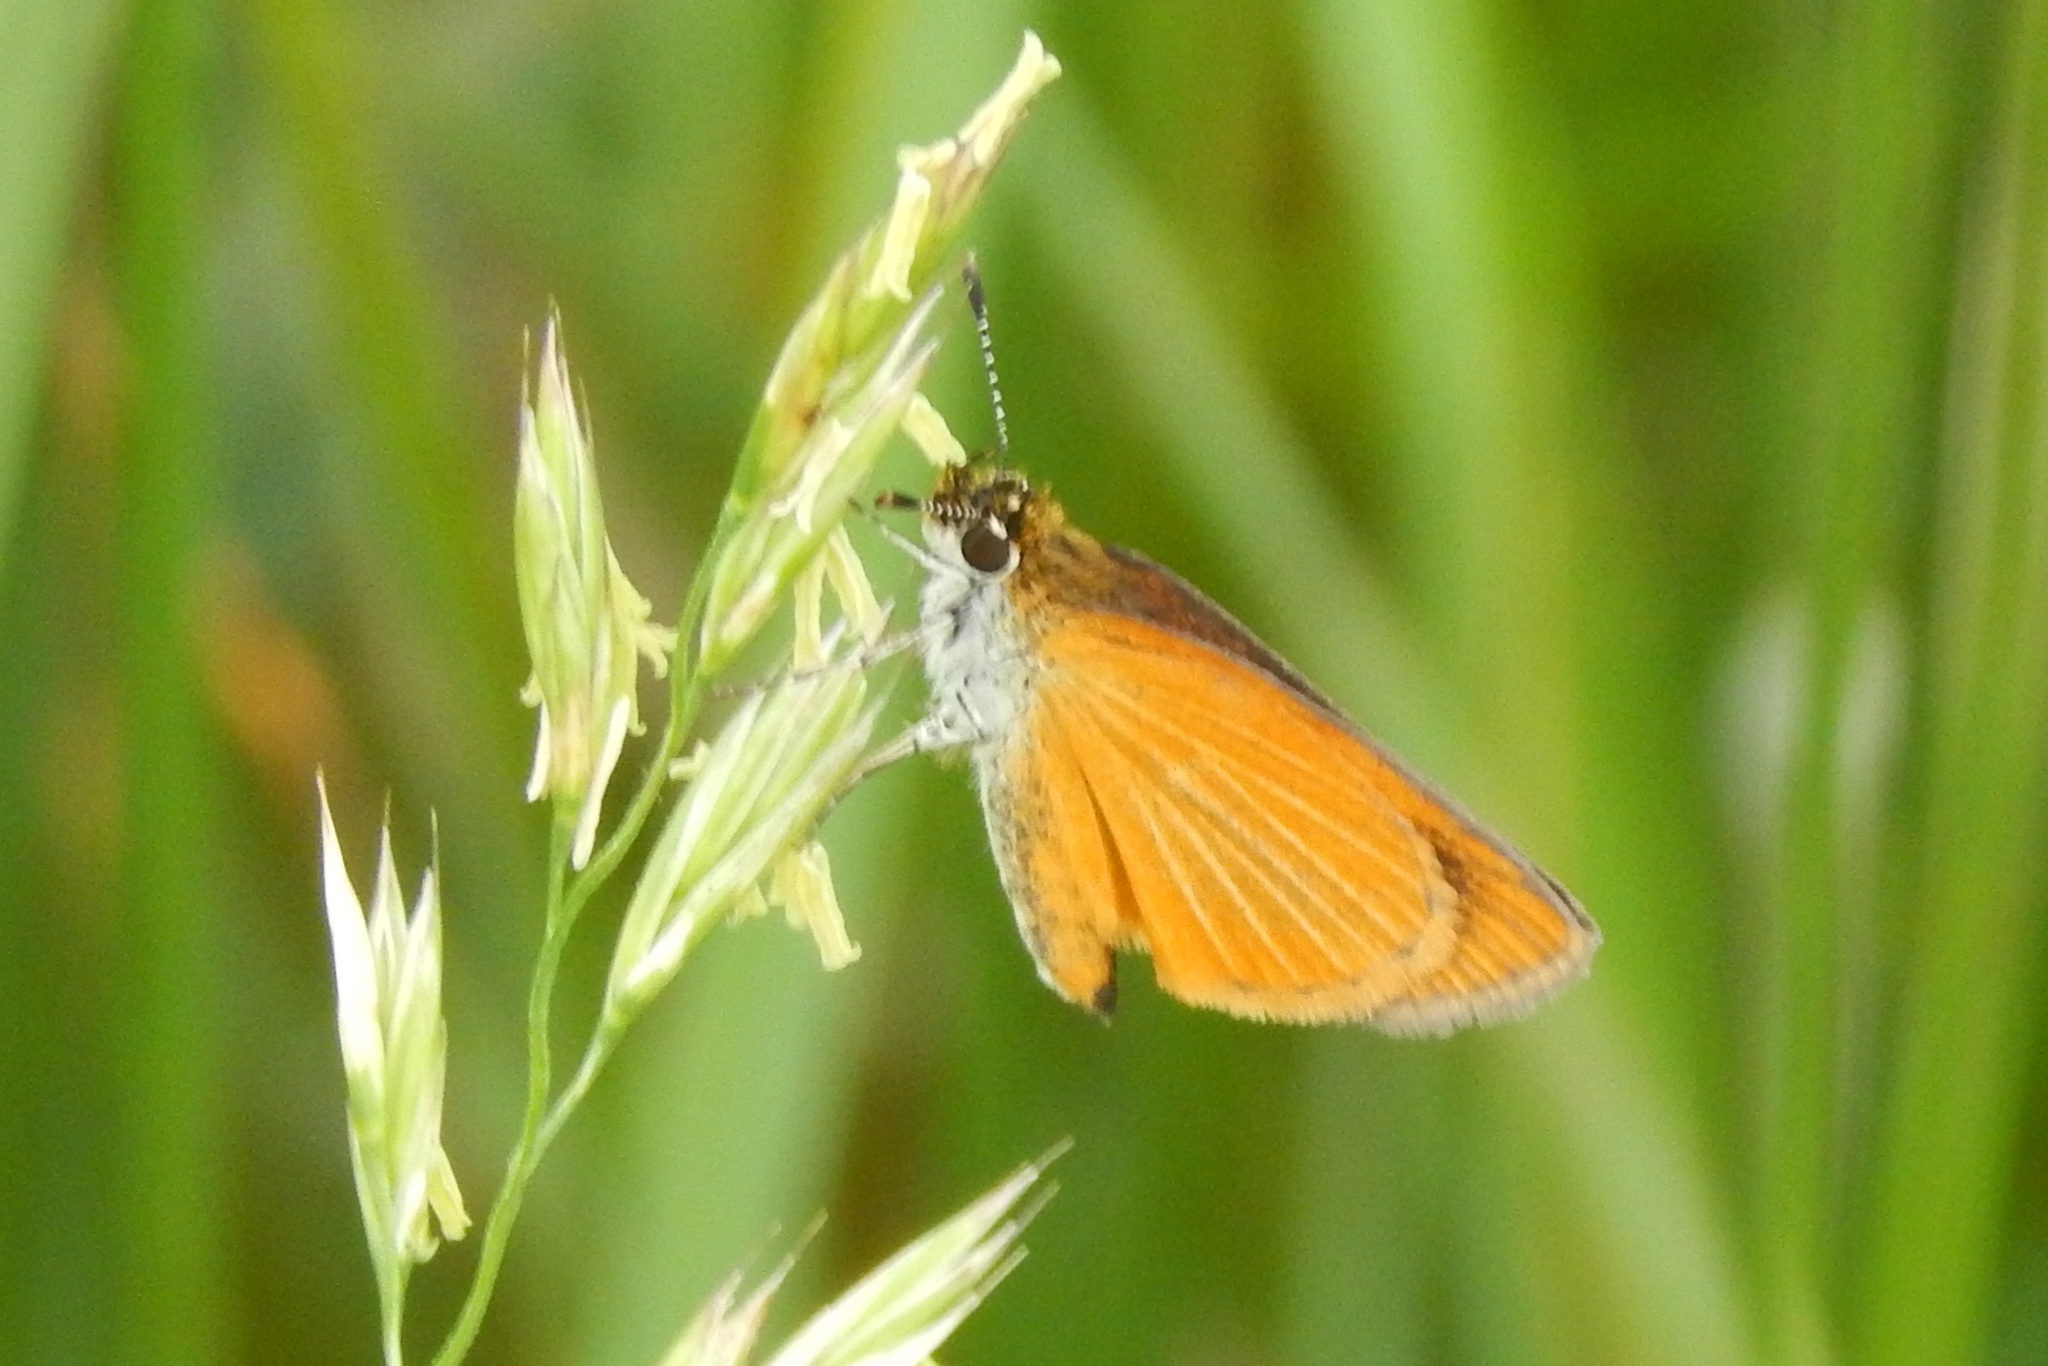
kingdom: Animalia
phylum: Arthropoda
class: Insecta
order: Lepidoptera
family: Hesperiidae
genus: Ancyloxypha
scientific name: Ancyloxypha numitor
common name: Least skipper
